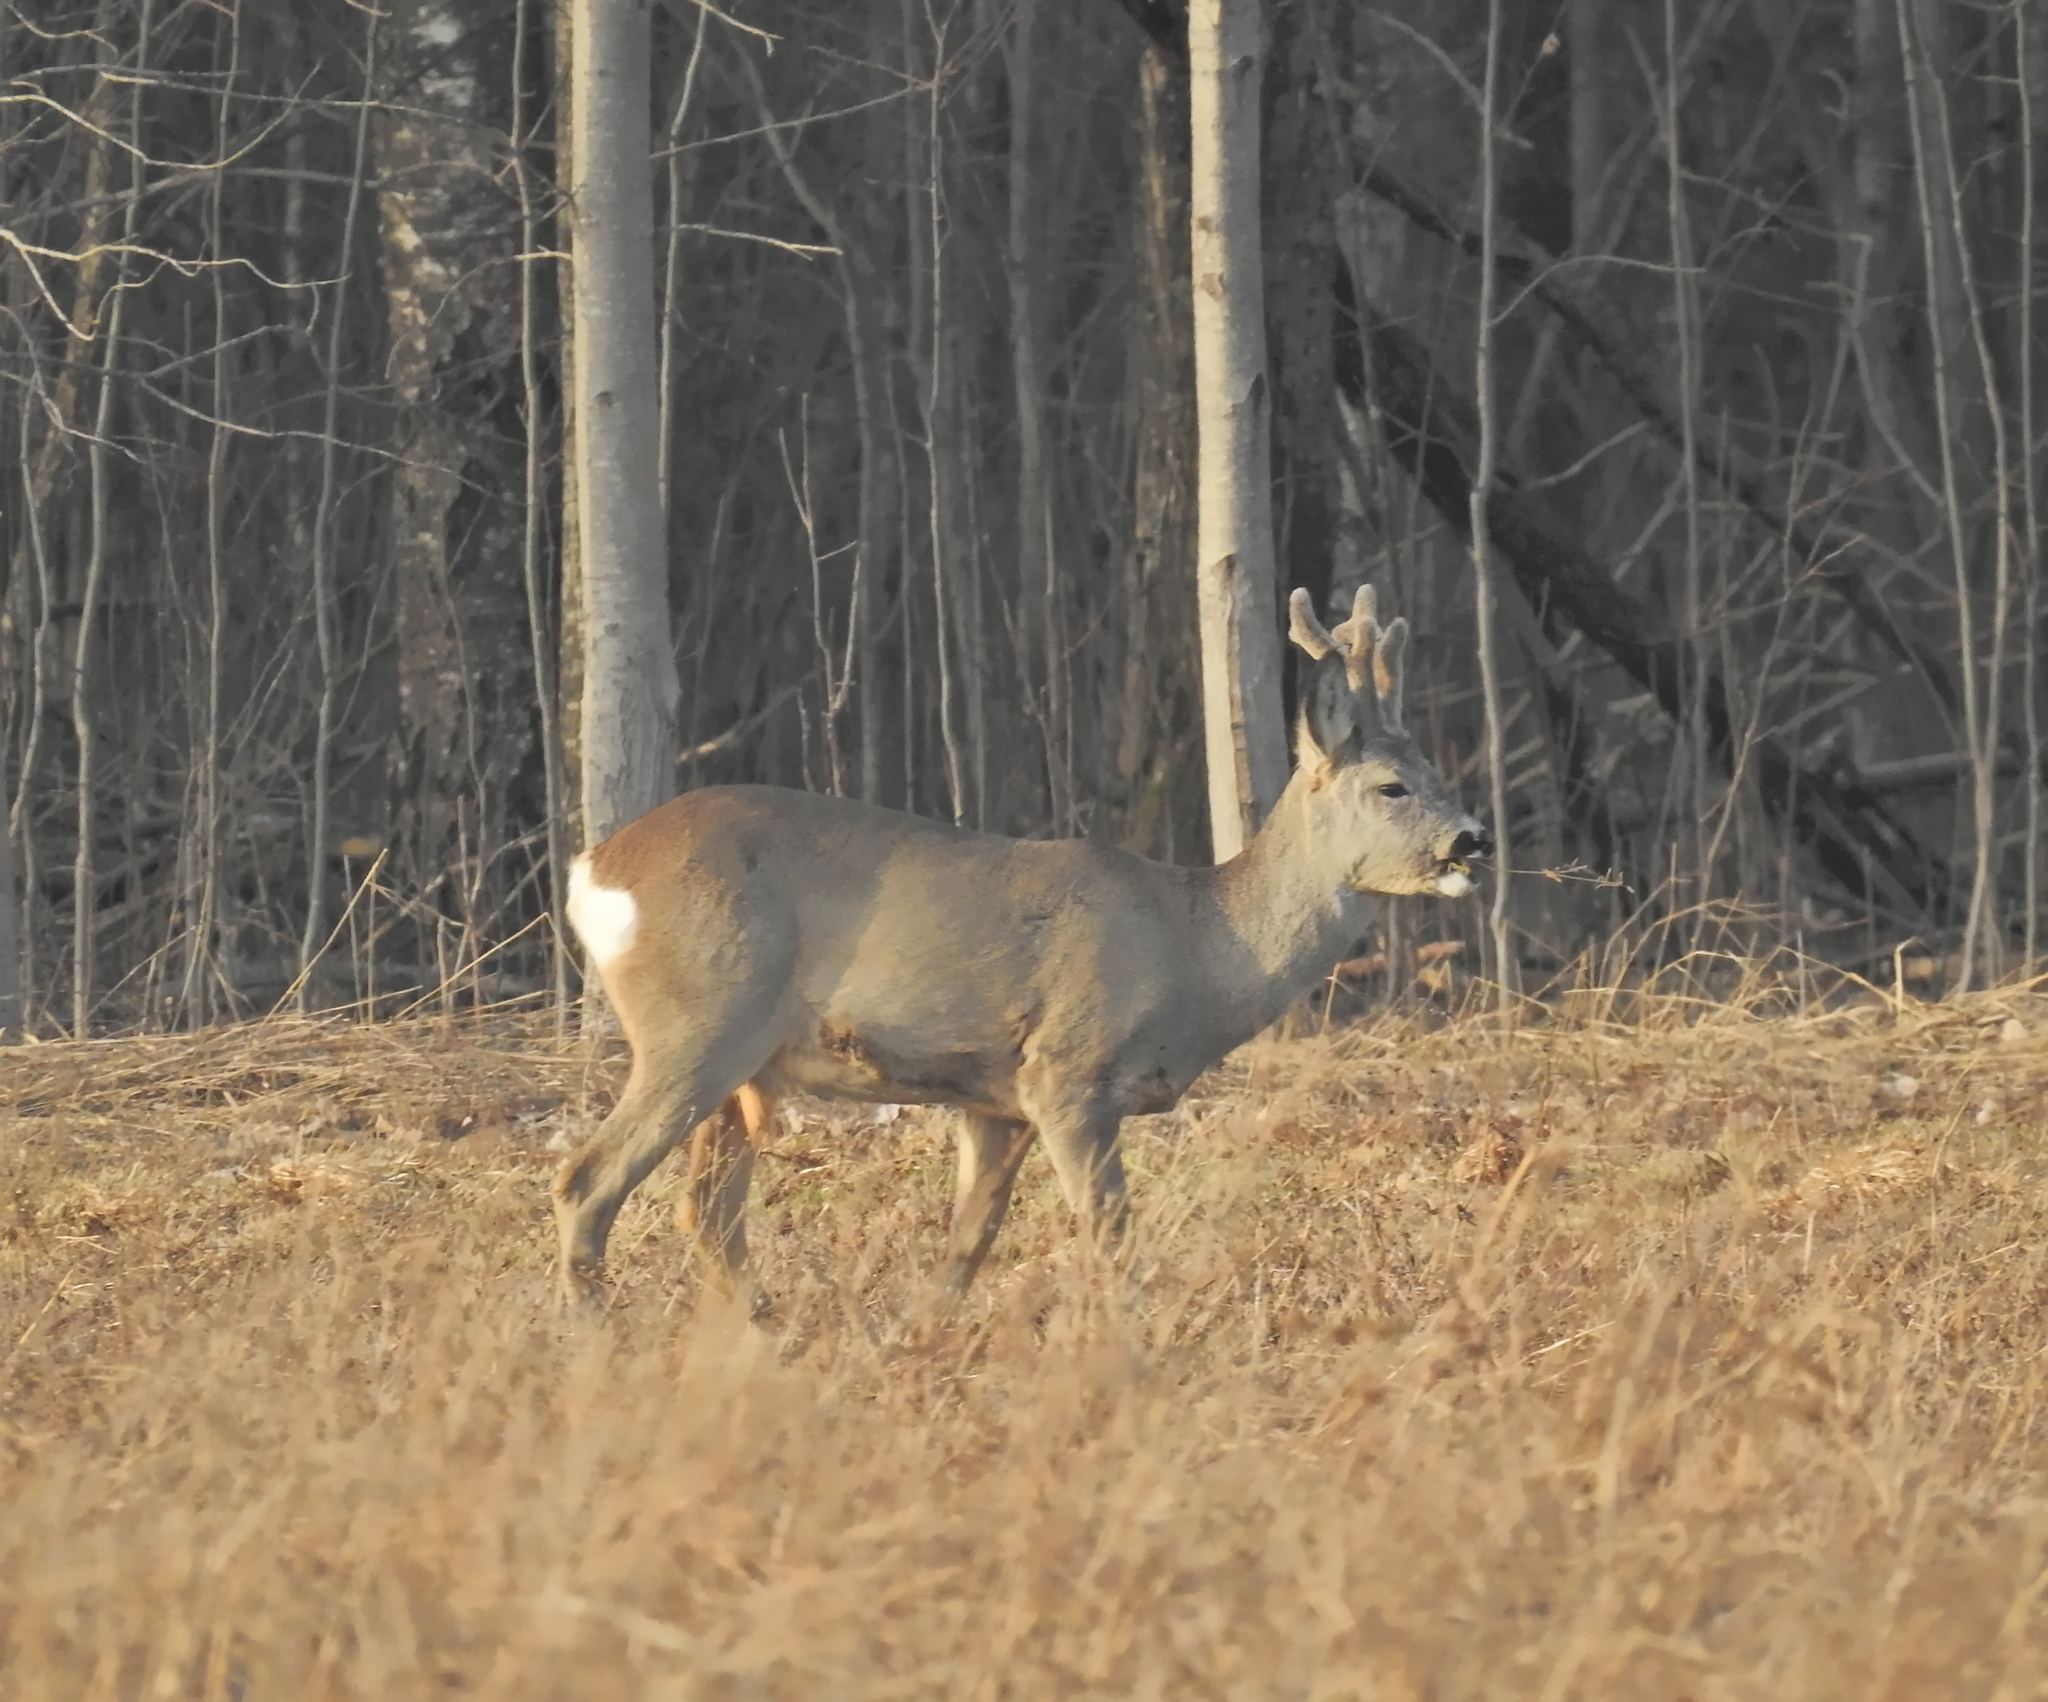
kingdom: Animalia
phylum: Chordata
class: Mammalia
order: Artiodactyla
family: Cervidae
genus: Capreolus
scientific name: Capreolus capreolus
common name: Western roe deer
